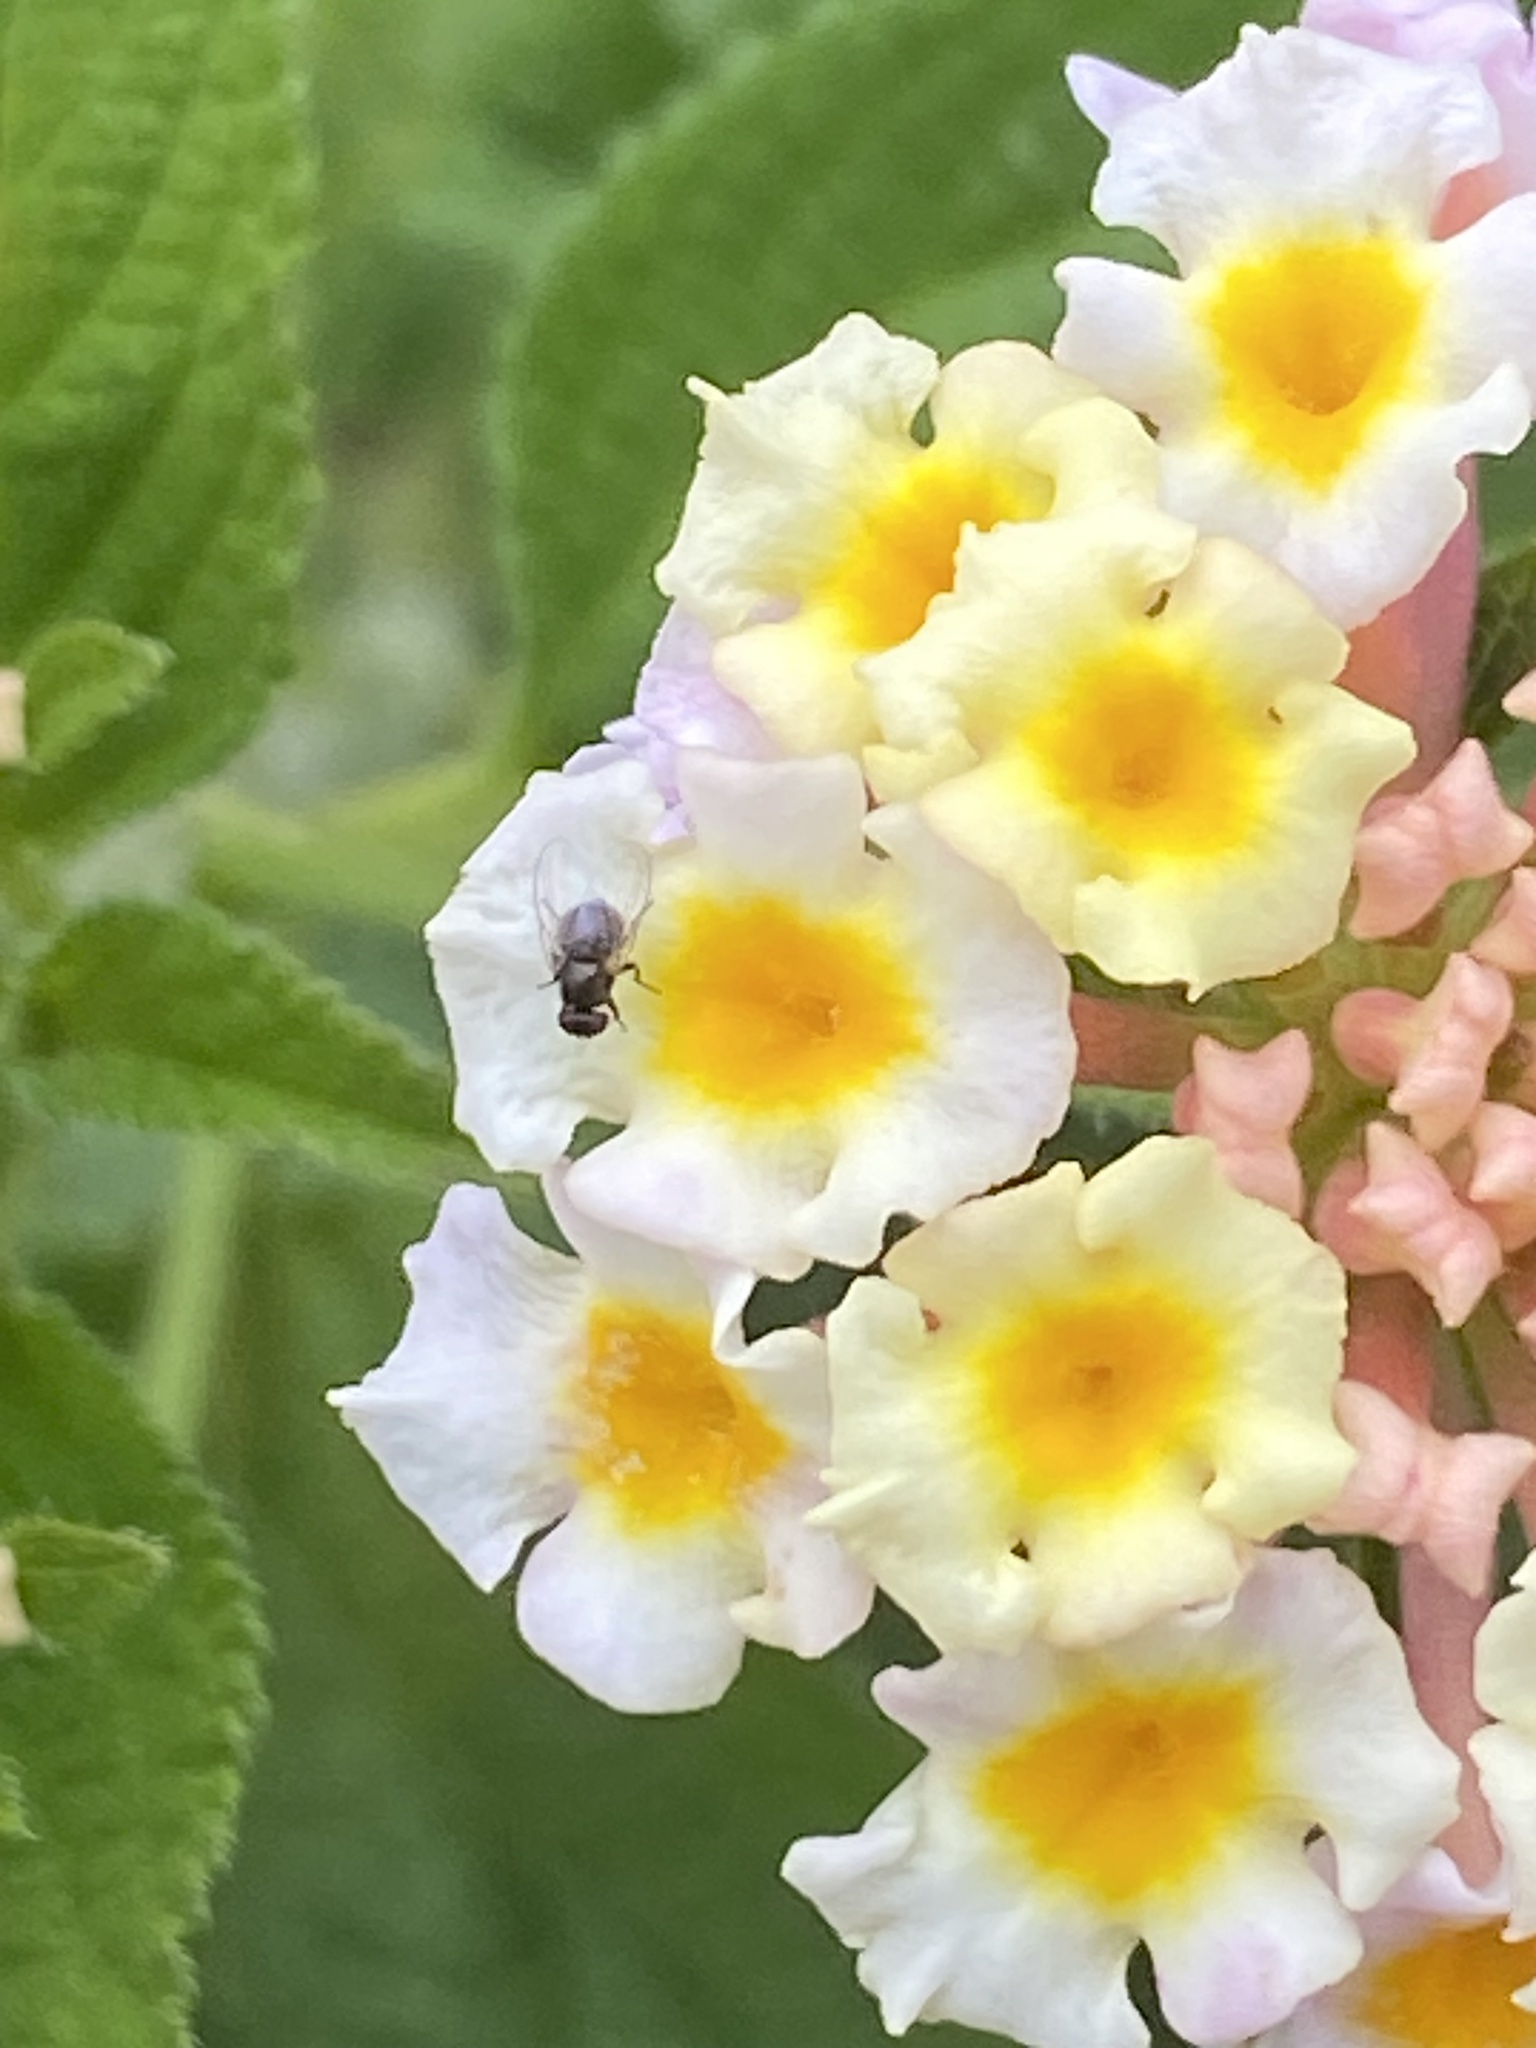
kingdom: Animalia
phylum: Arthropoda
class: Insecta
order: Diptera
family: Agromyzidae
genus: Ophiomyia
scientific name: Ophiomyia lantanae
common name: Lantana seed fly
